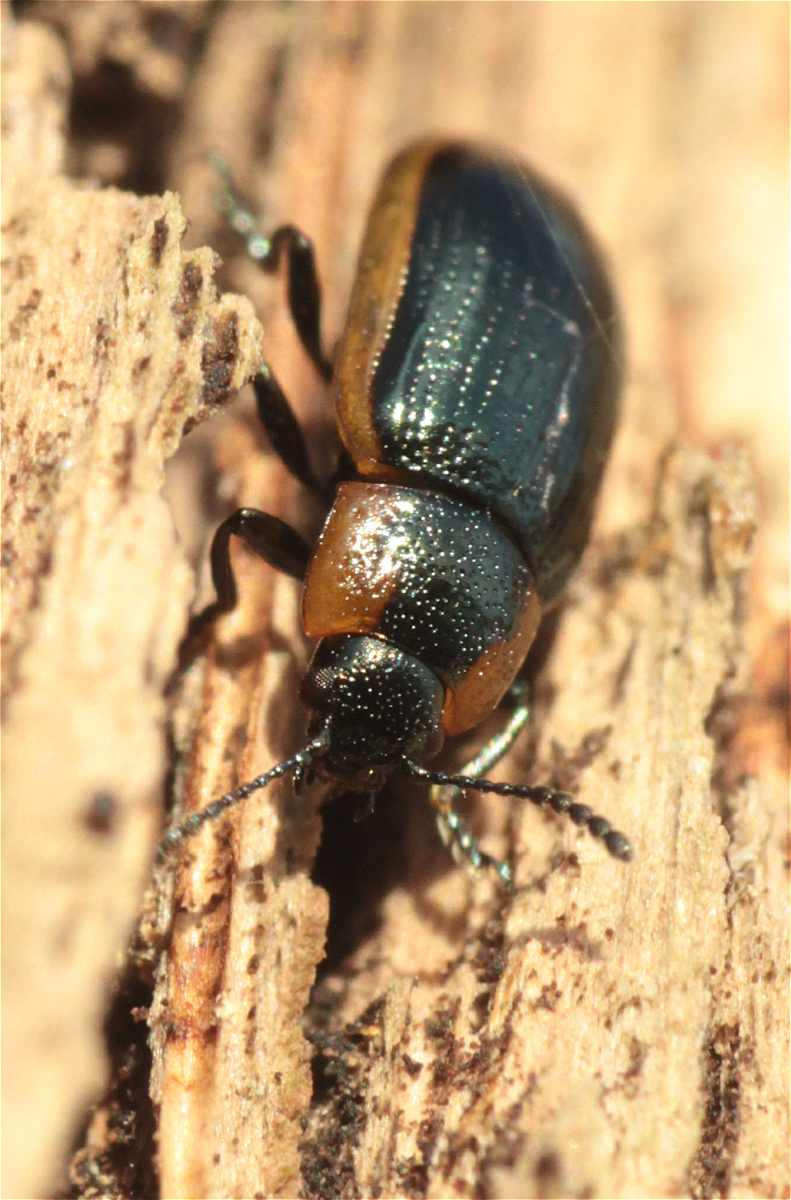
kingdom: Animalia
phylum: Arthropoda
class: Insecta
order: Coleoptera
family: Chrysomelidae
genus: Prasocuris
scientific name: Prasocuris marginella
